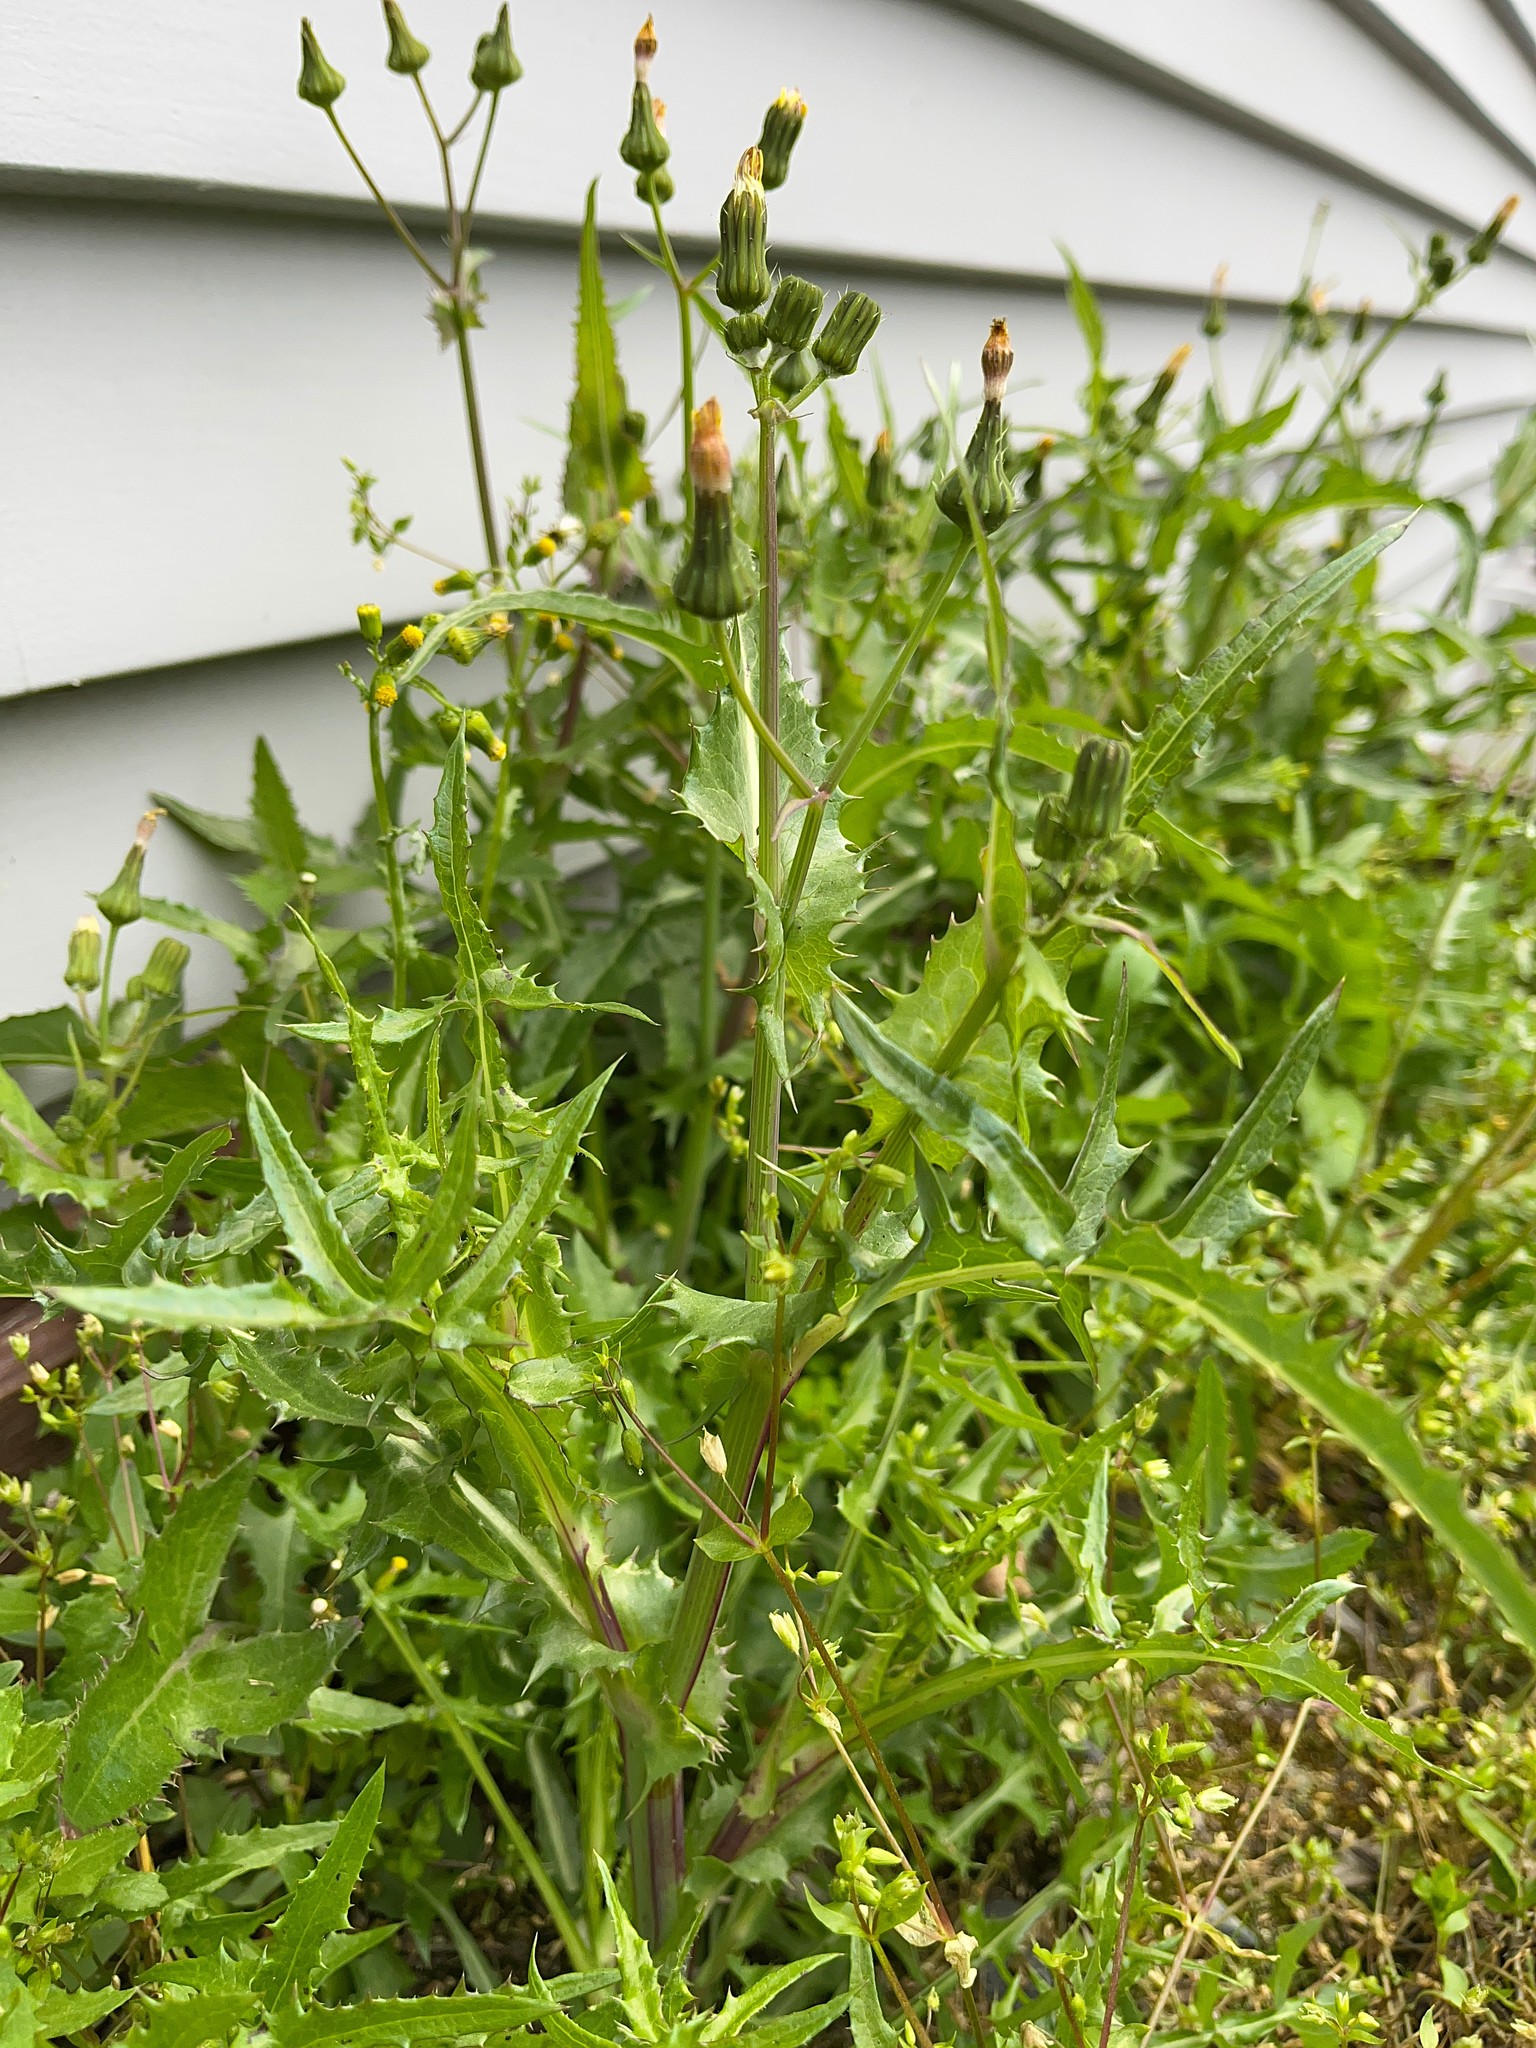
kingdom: Plantae
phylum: Tracheophyta
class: Magnoliopsida
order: Asterales
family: Asteraceae
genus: Sonchus
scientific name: Sonchus asper
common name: Prickly sow-thistle
